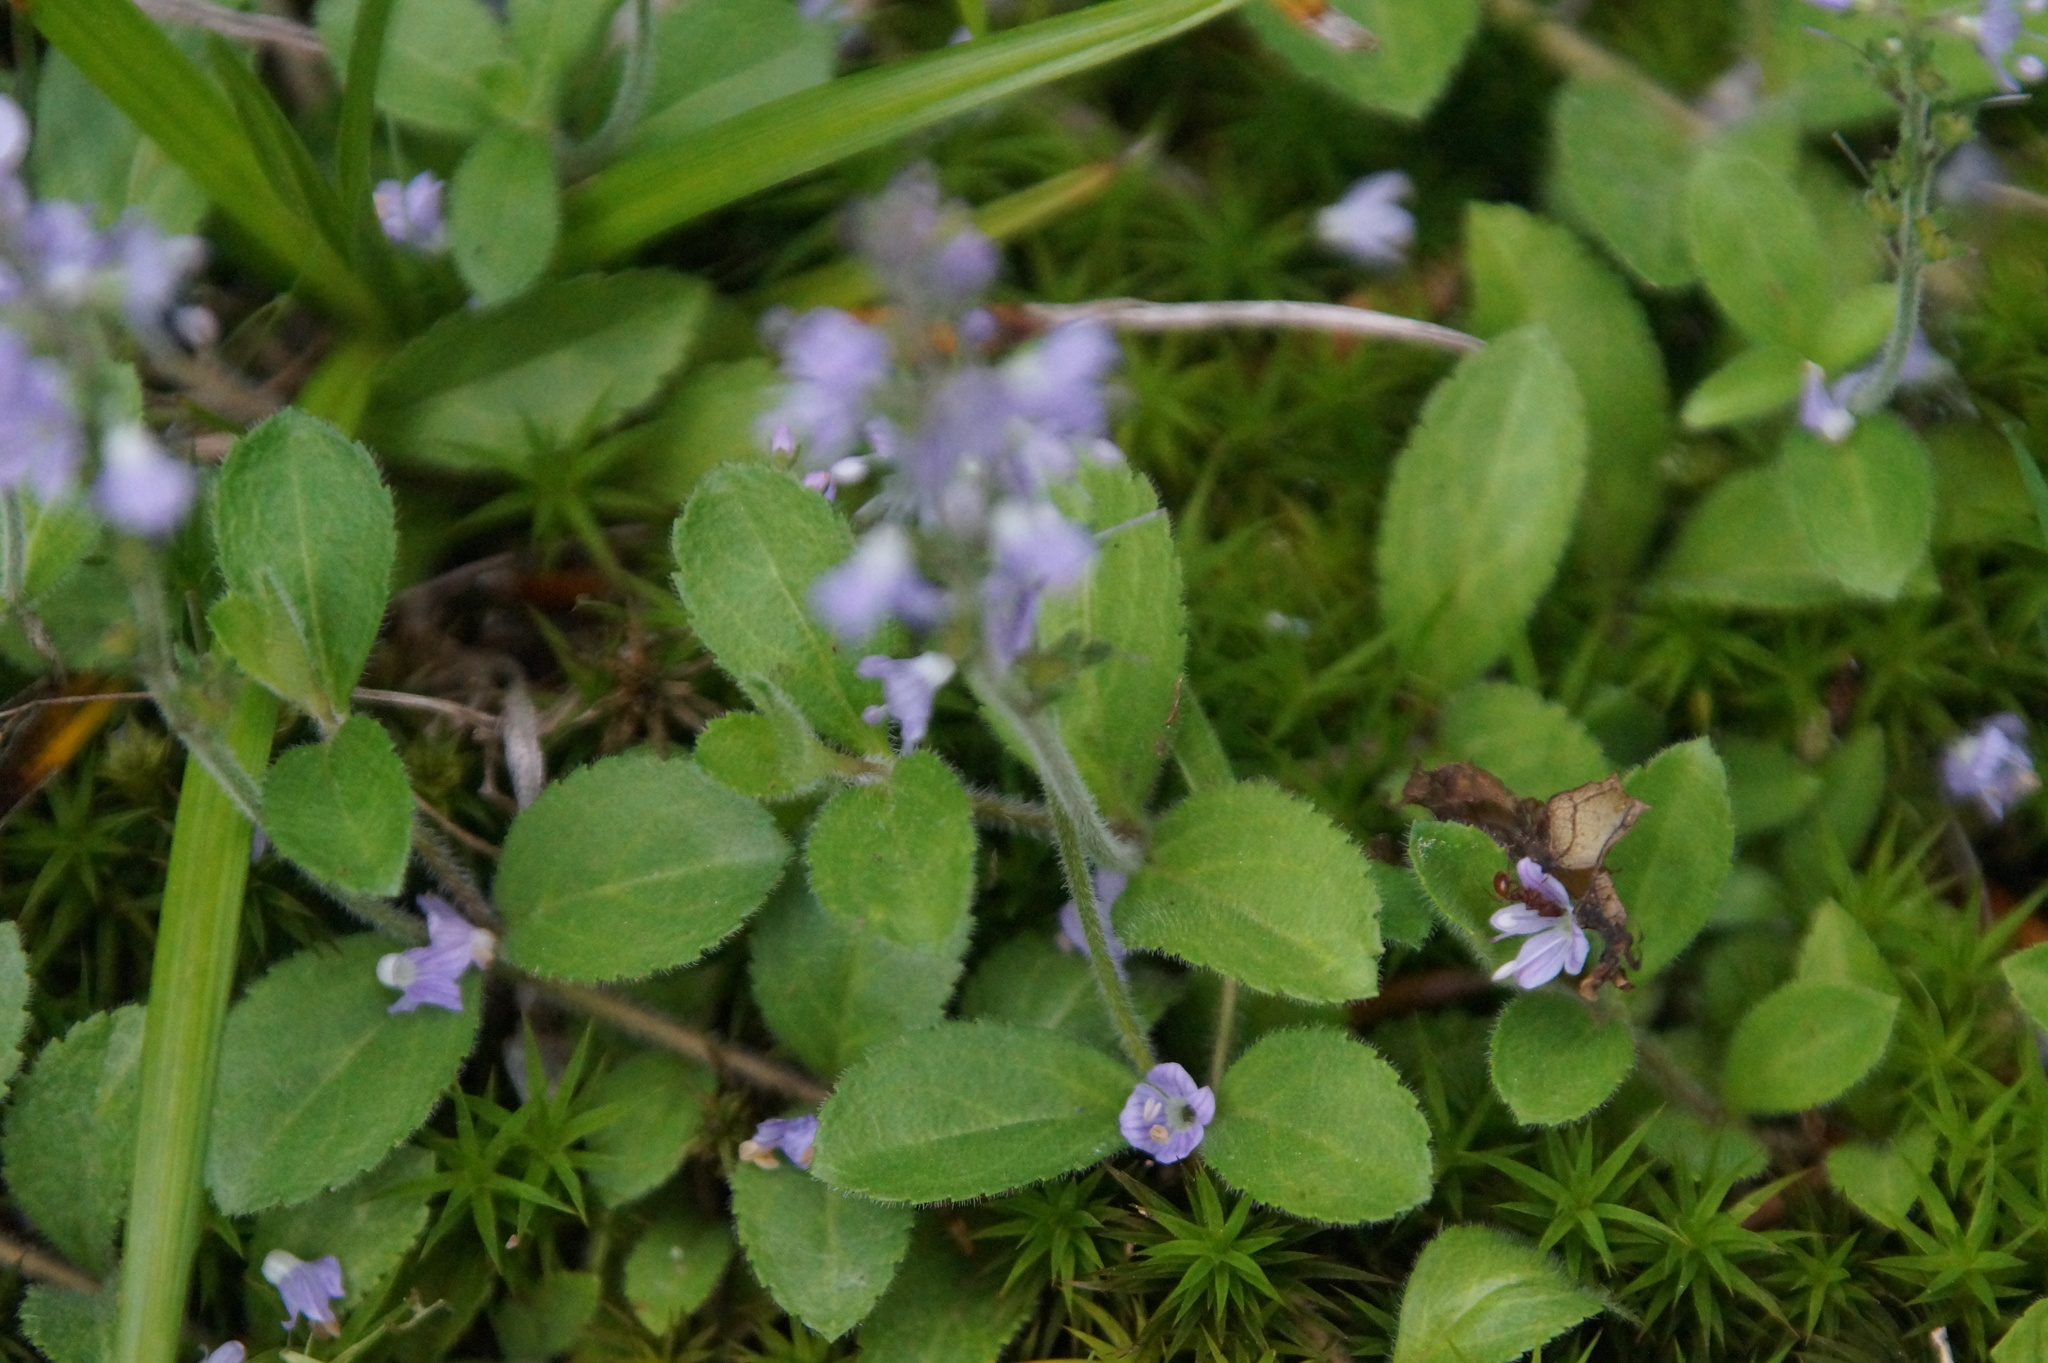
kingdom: Plantae
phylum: Tracheophyta
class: Magnoliopsida
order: Lamiales
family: Plantaginaceae
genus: Veronica
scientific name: Veronica officinalis
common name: Common speedwell
